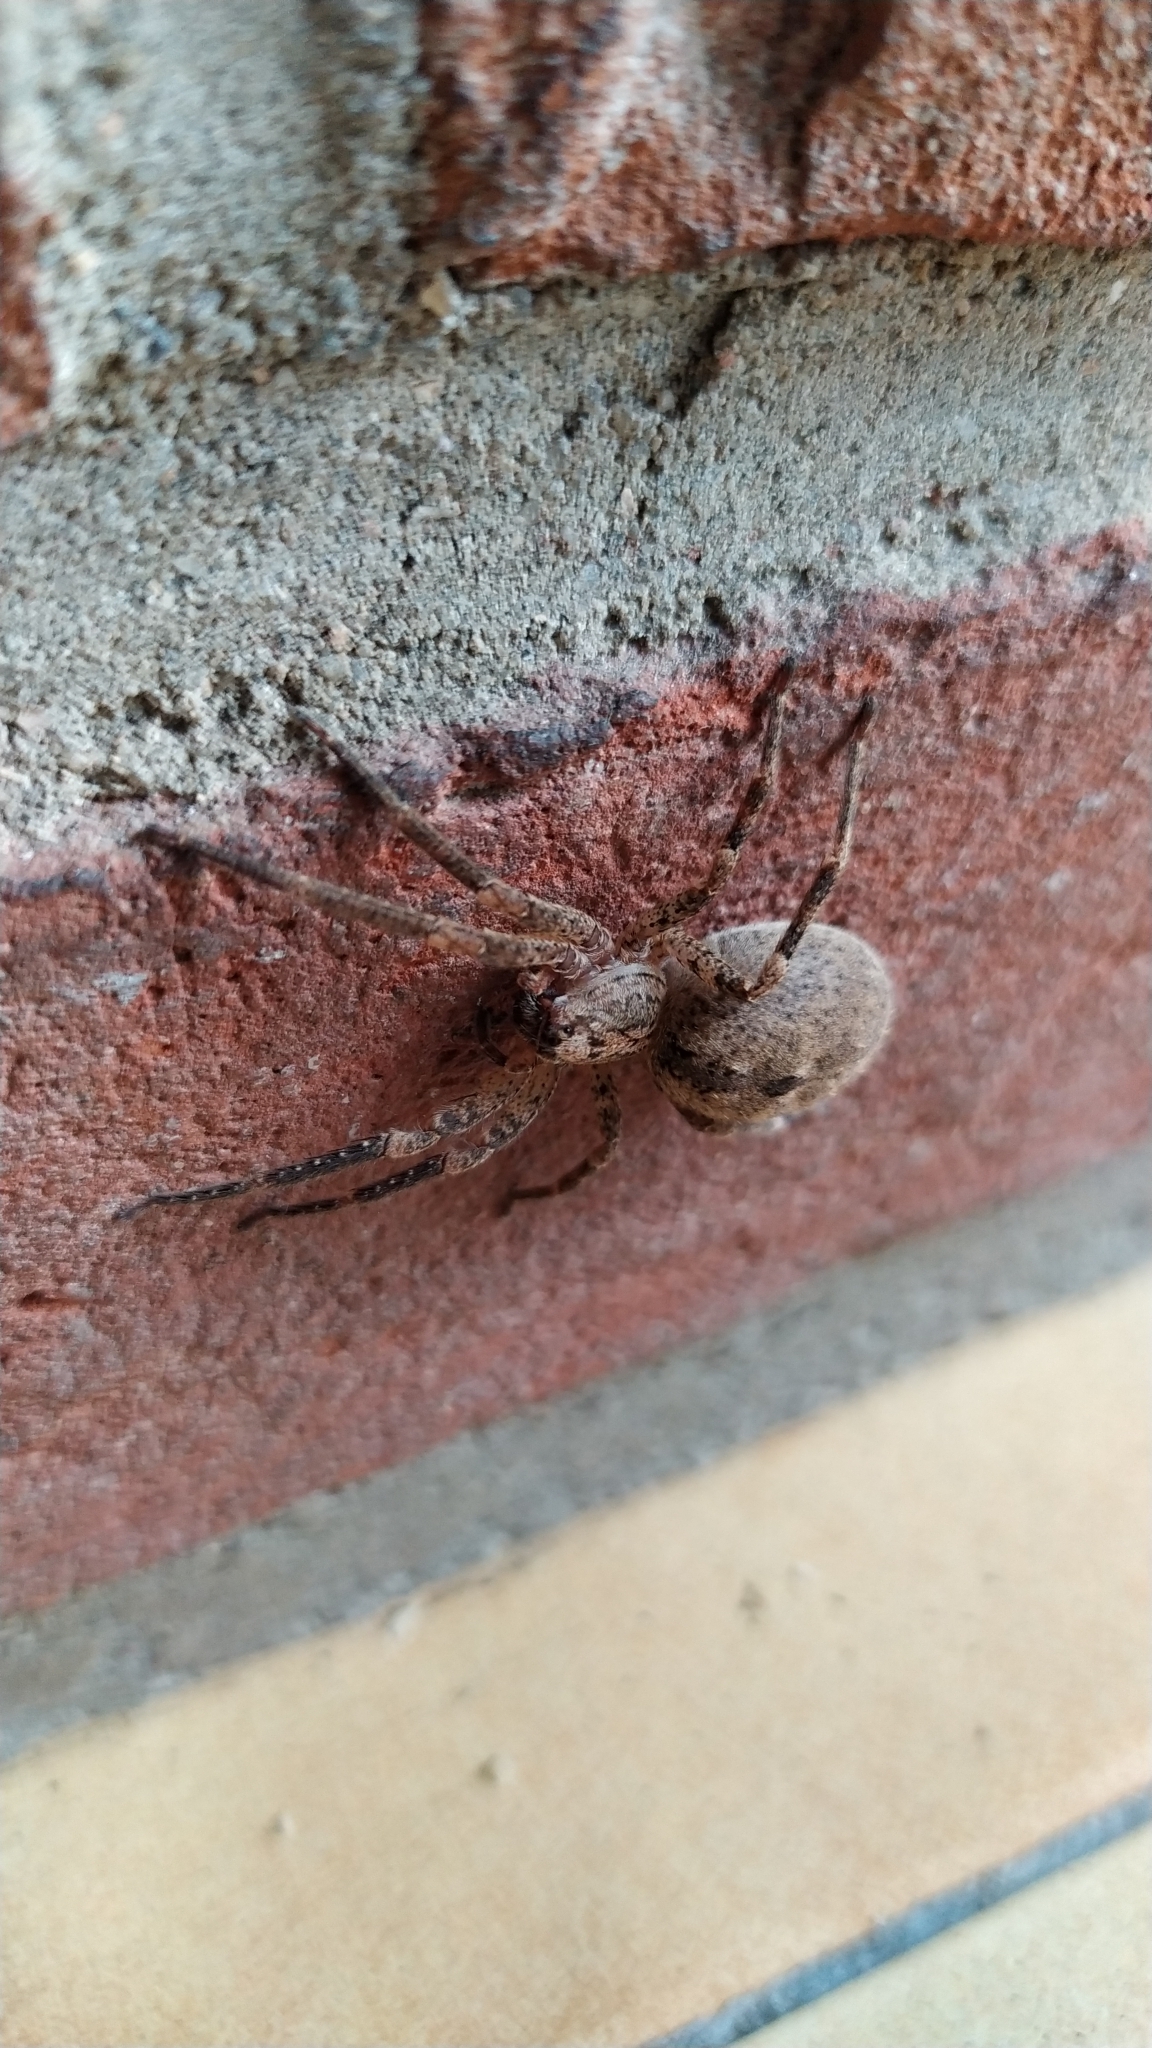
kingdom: Animalia
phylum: Arthropoda
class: Arachnida
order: Araneae
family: Zoropsidae
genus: Zoropsis
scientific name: Zoropsis spinimana
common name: Zoropsid spider
